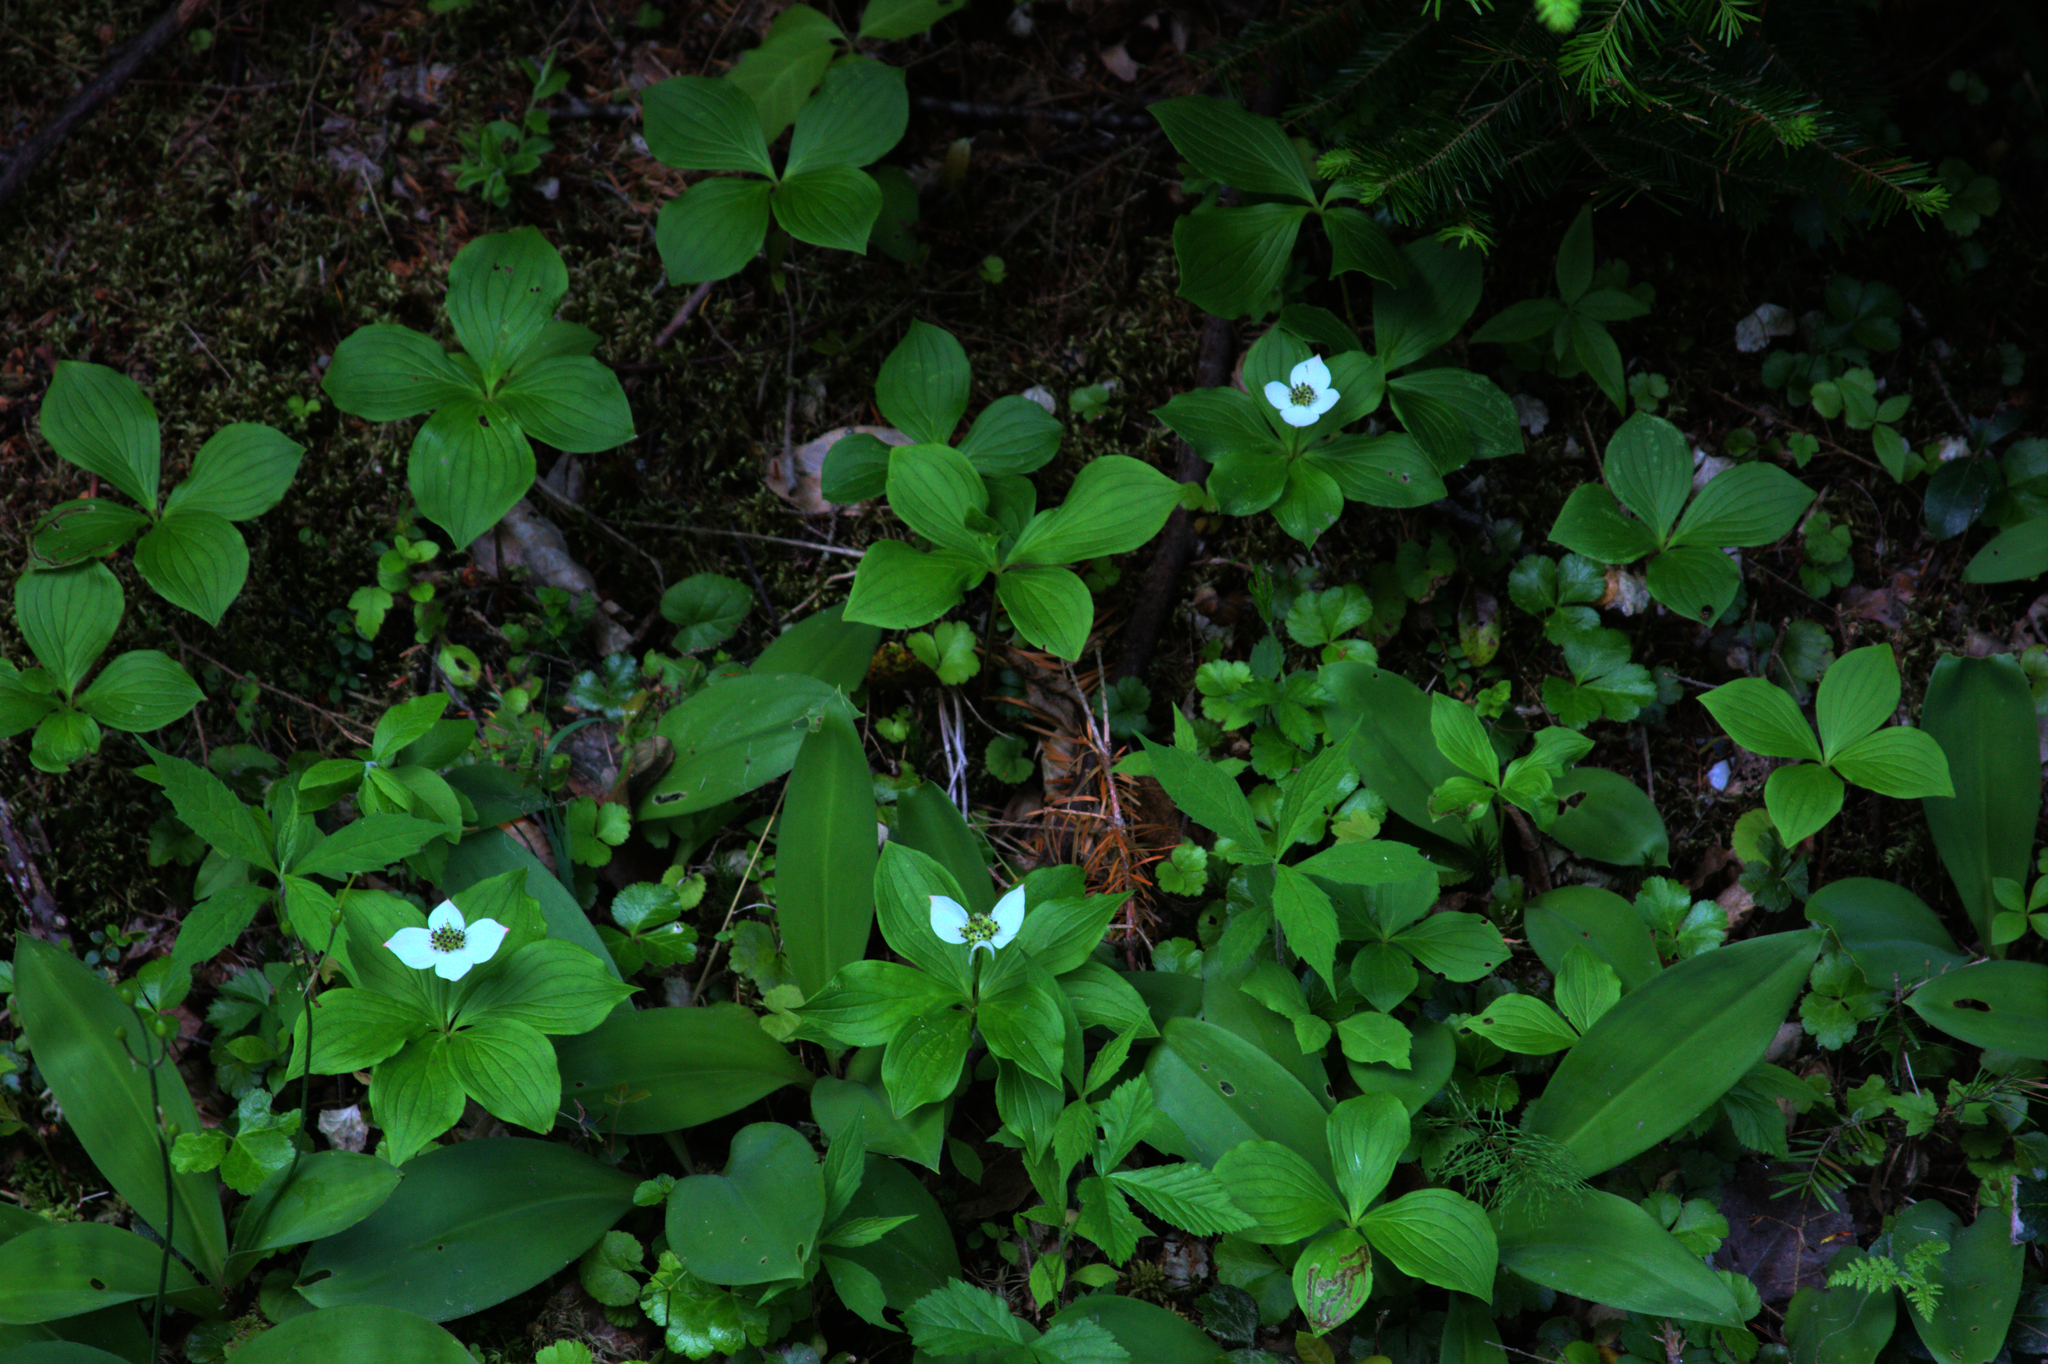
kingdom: Plantae
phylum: Tracheophyta
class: Magnoliopsida
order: Cornales
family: Cornaceae
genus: Cornus
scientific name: Cornus canadensis
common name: Creeping dogwood
